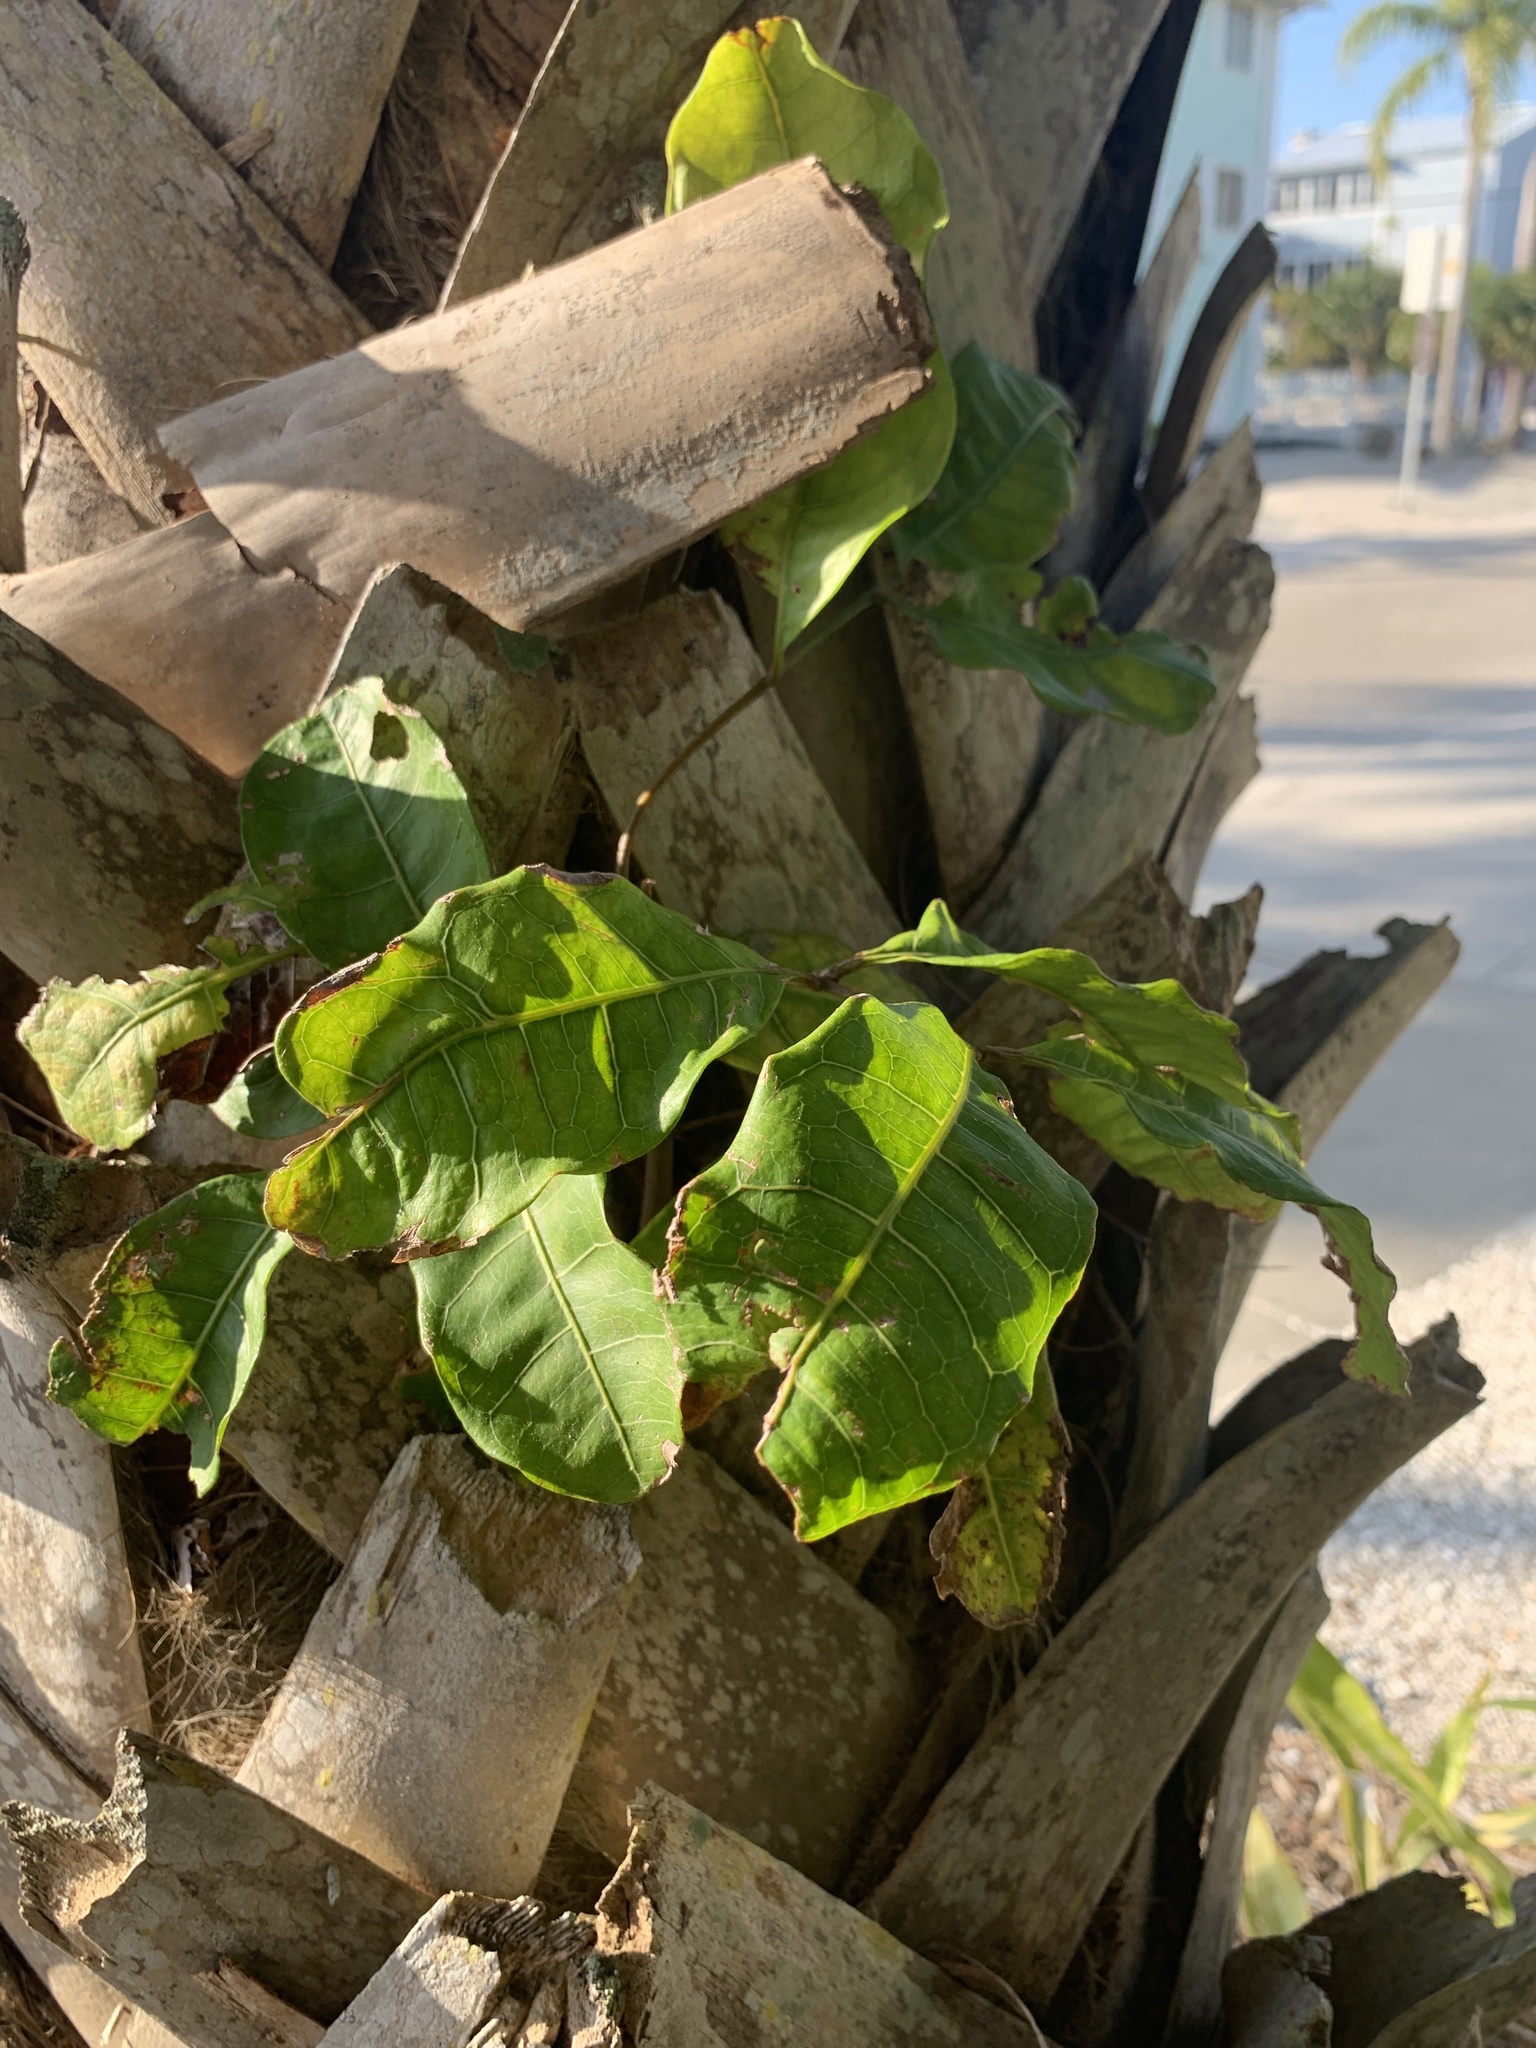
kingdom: Plantae
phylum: Tracheophyta
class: Magnoliopsida
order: Sapindales
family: Sapindaceae
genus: Cupaniopsis
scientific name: Cupaniopsis anacardioides
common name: Carrotwood
